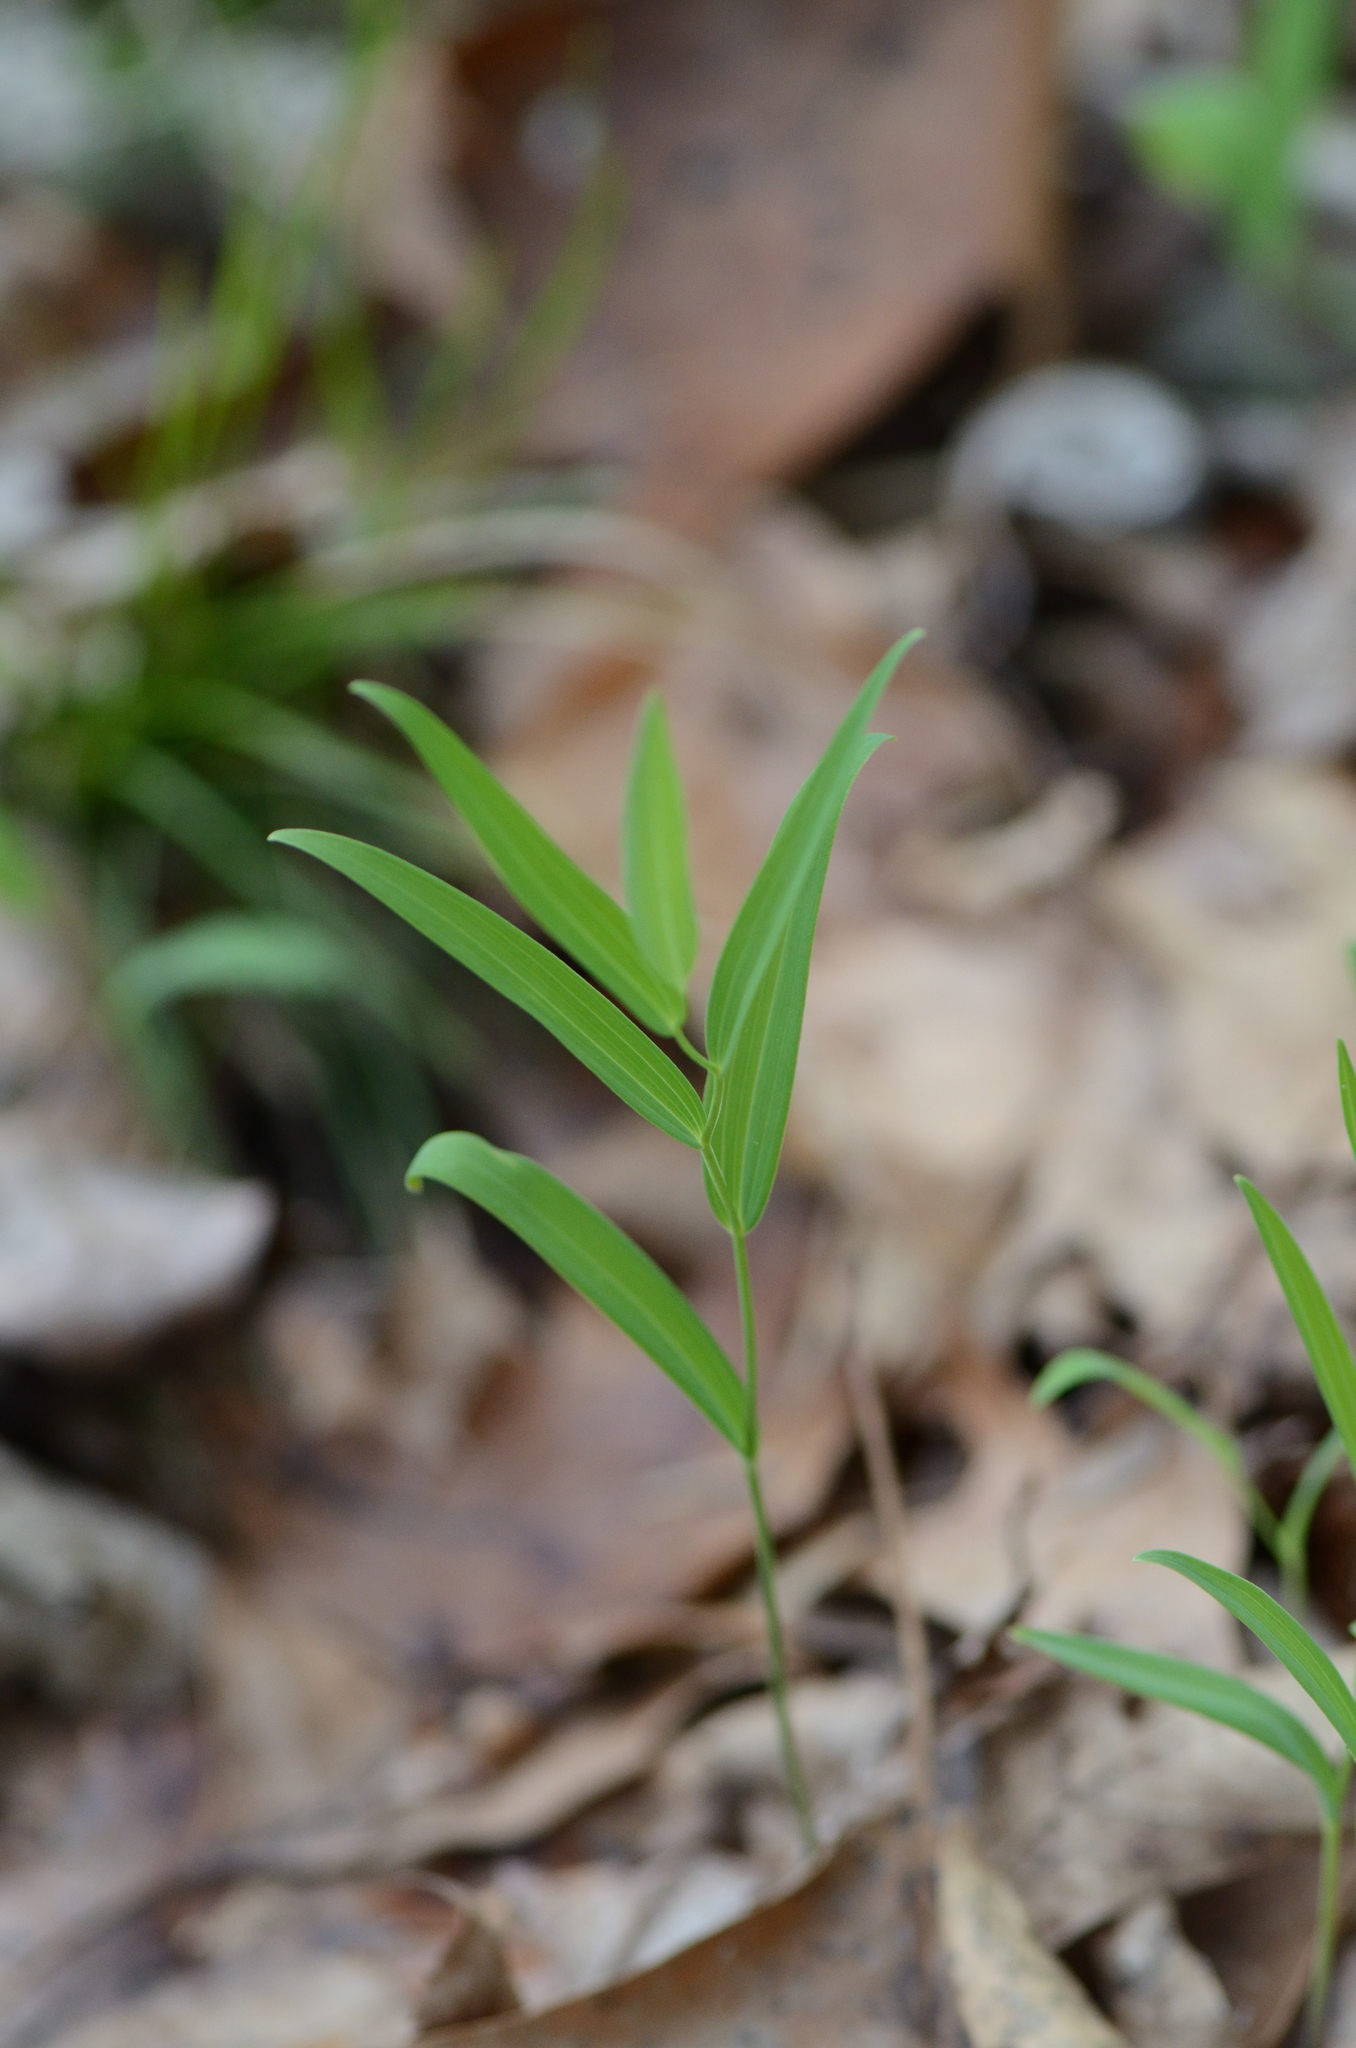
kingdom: Plantae
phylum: Tracheophyta
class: Liliopsida
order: Asparagales
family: Asparagaceae
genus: Polygonatum
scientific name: Polygonatum biflorum
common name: American solomon's-seal
